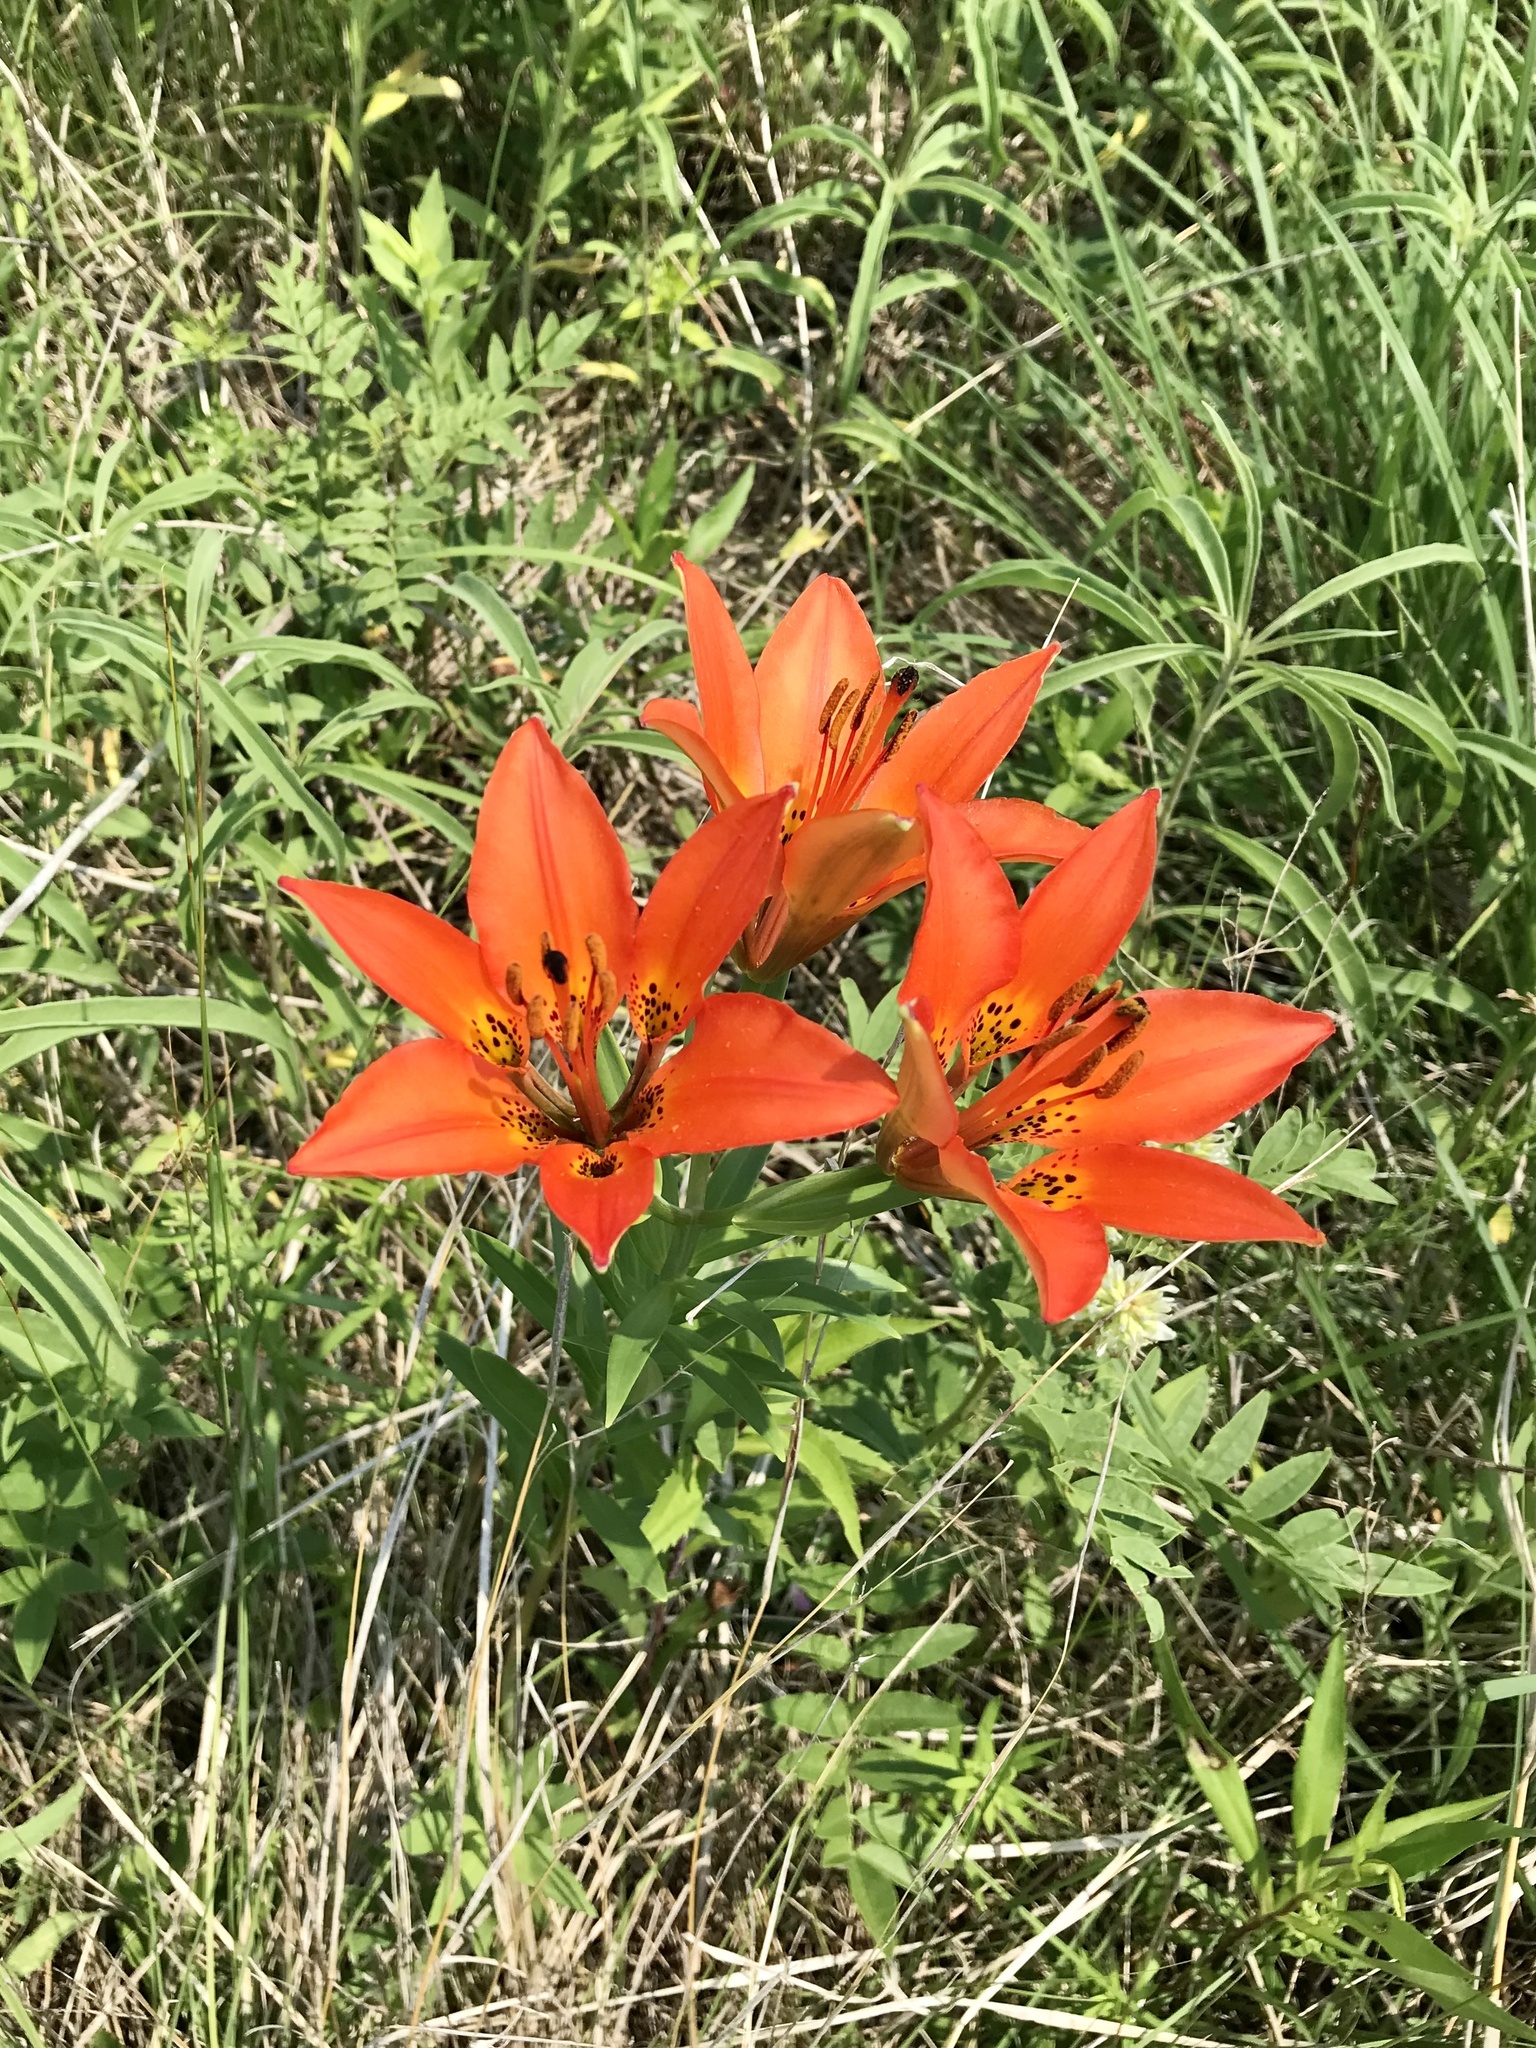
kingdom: Plantae
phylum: Tracheophyta
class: Liliopsida
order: Liliales
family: Liliaceae
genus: Lilium
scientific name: Lilium philadelphicum
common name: Red lily
